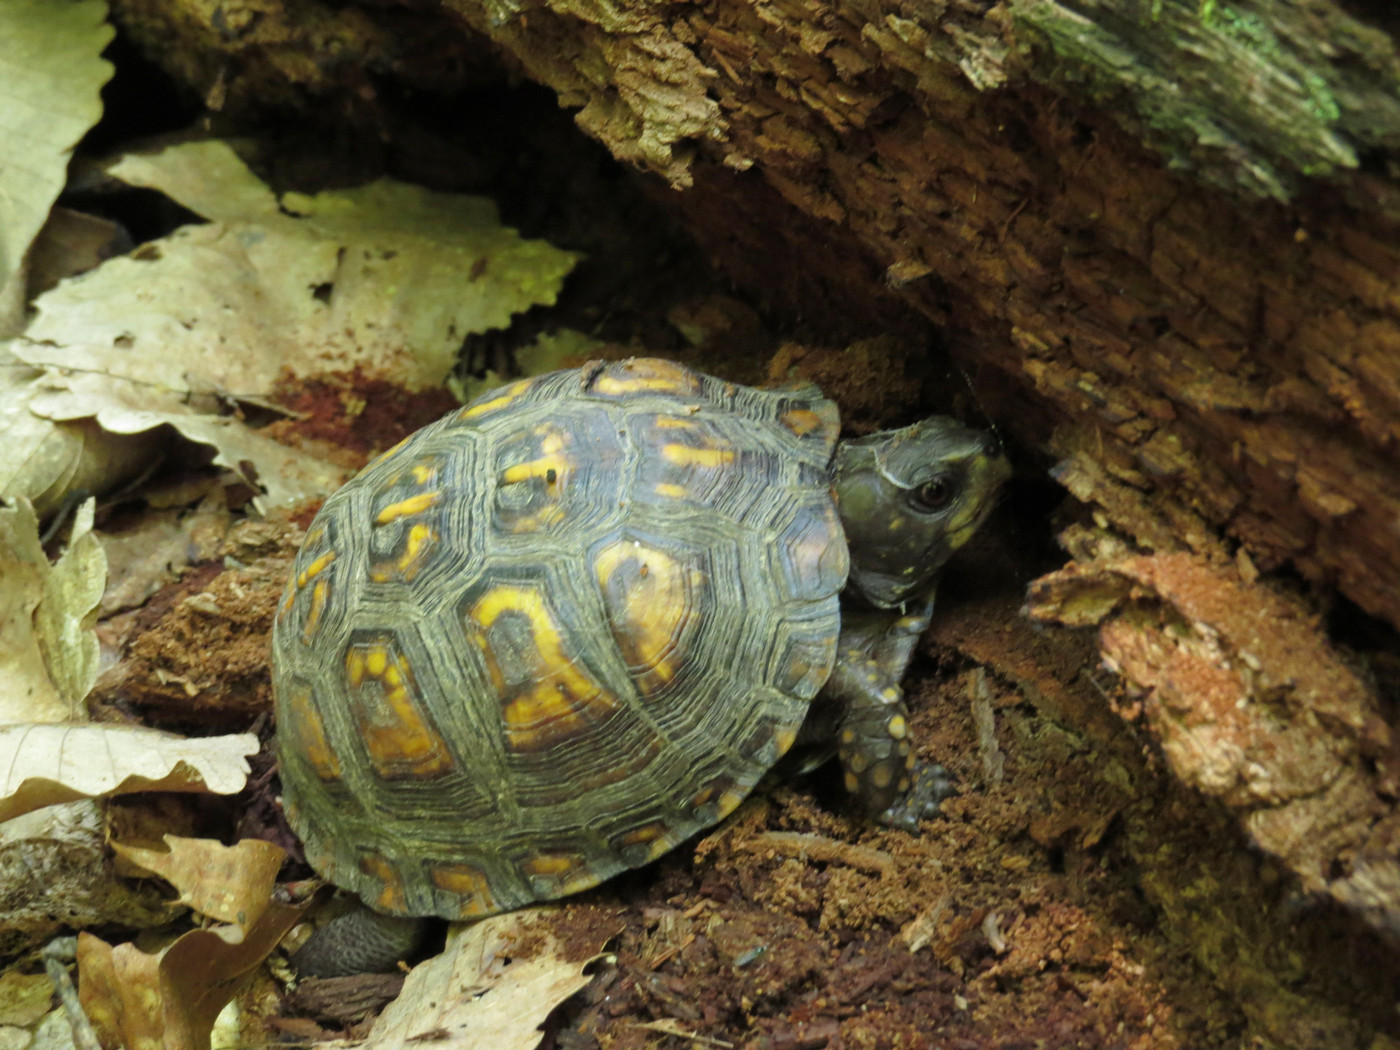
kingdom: Animalia
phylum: Chordata
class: Testudines
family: Emydidae
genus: Terrapene
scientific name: Terrapene carolina
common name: Common box turtle
